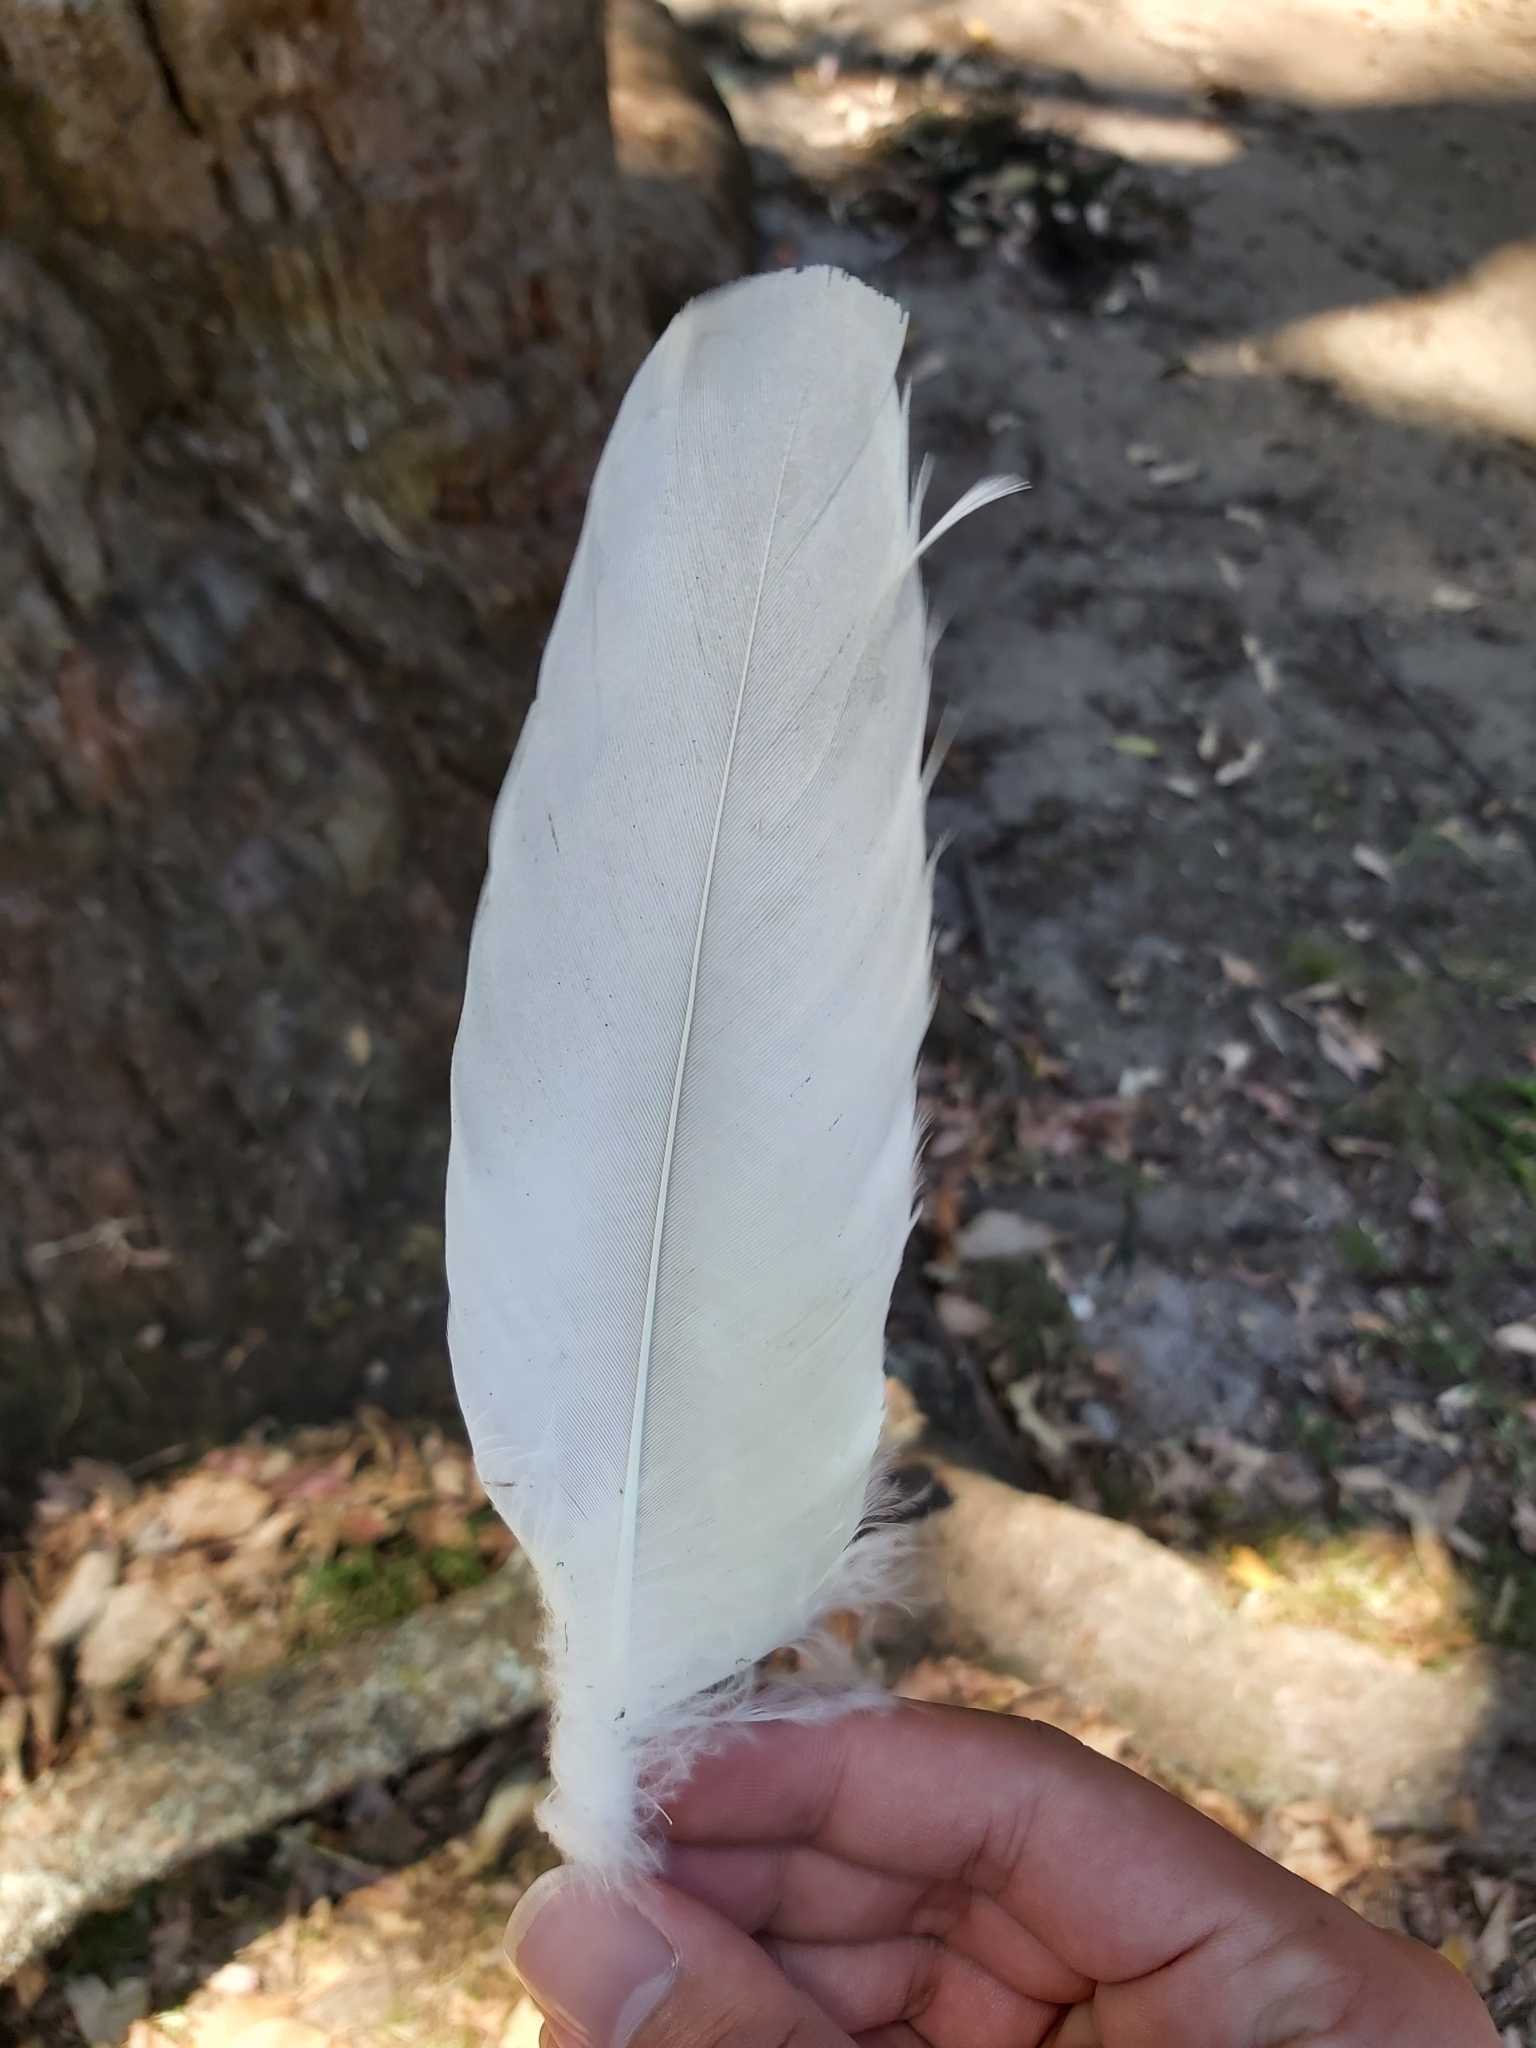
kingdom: Animalia
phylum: Chordata
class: Aves
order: Psittaciformes
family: Psittacidae
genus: Cacatua
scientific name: Cacatua galerita
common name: Sulphur-crested cockatoo
